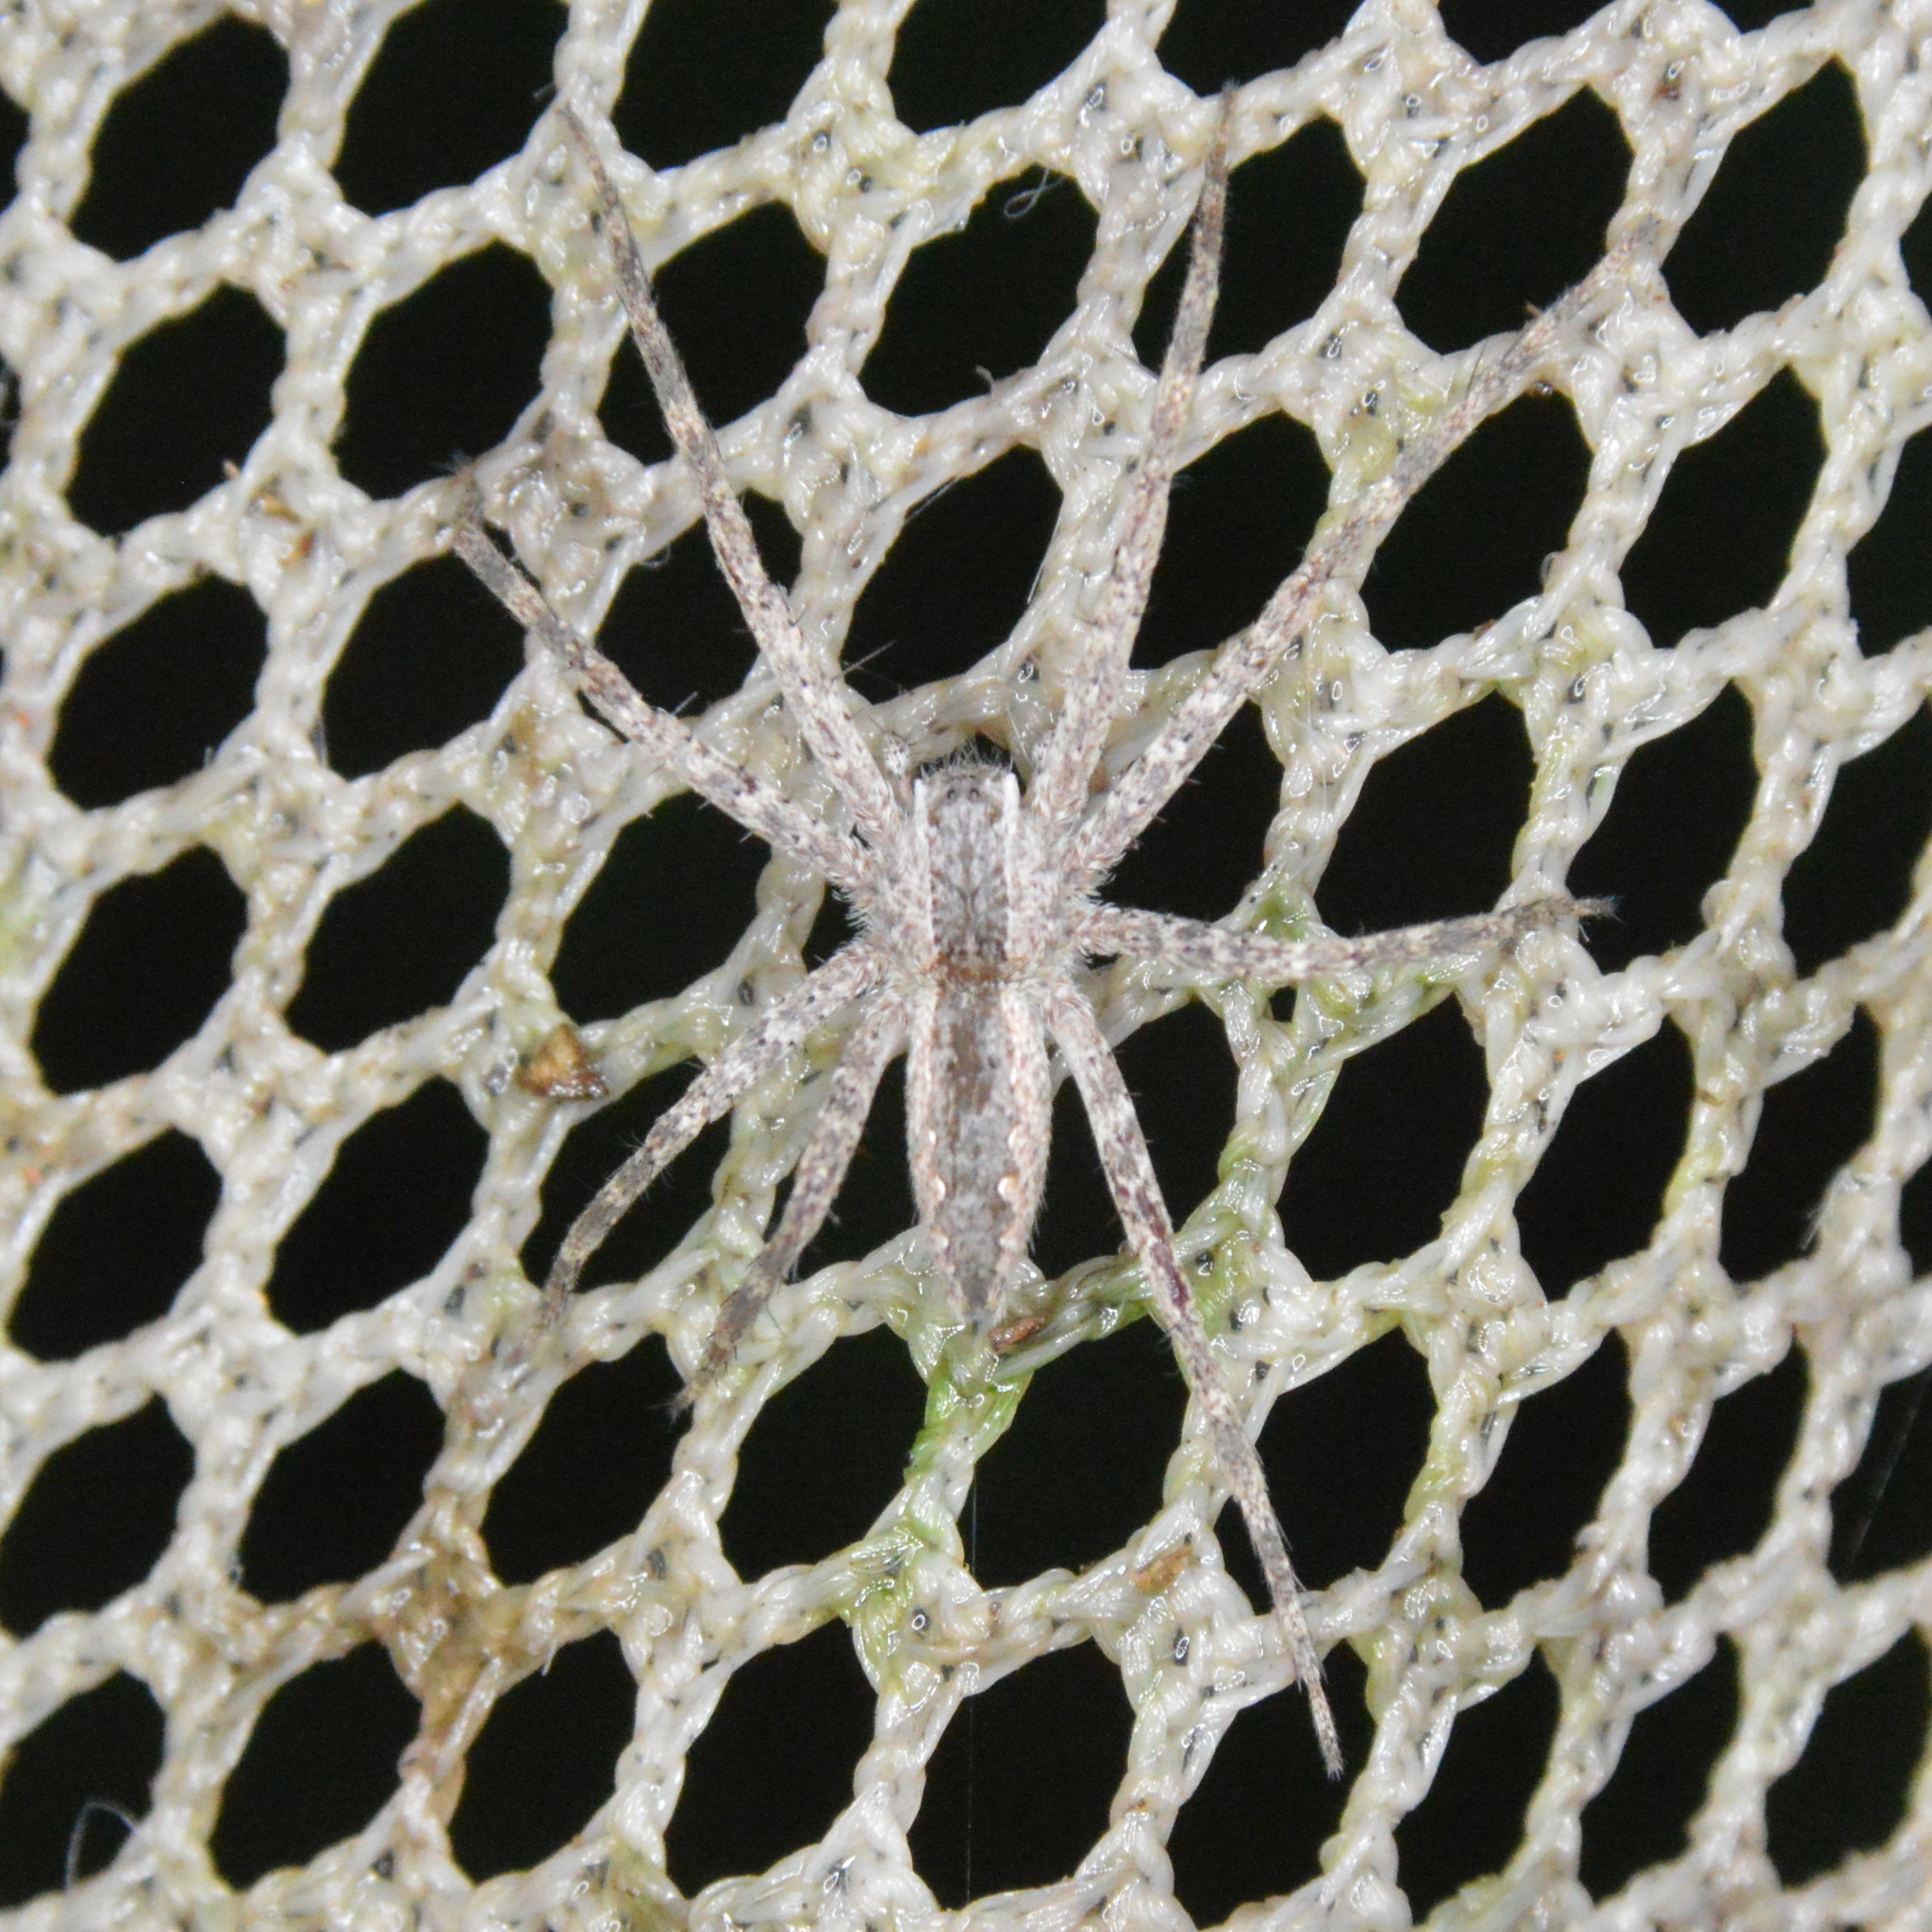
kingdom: Animalia
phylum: Arthropoda
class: Arachnida
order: Araneae
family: Pisauridae
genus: Pisaurina
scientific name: Pisaurina mira
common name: American nursery web spider
